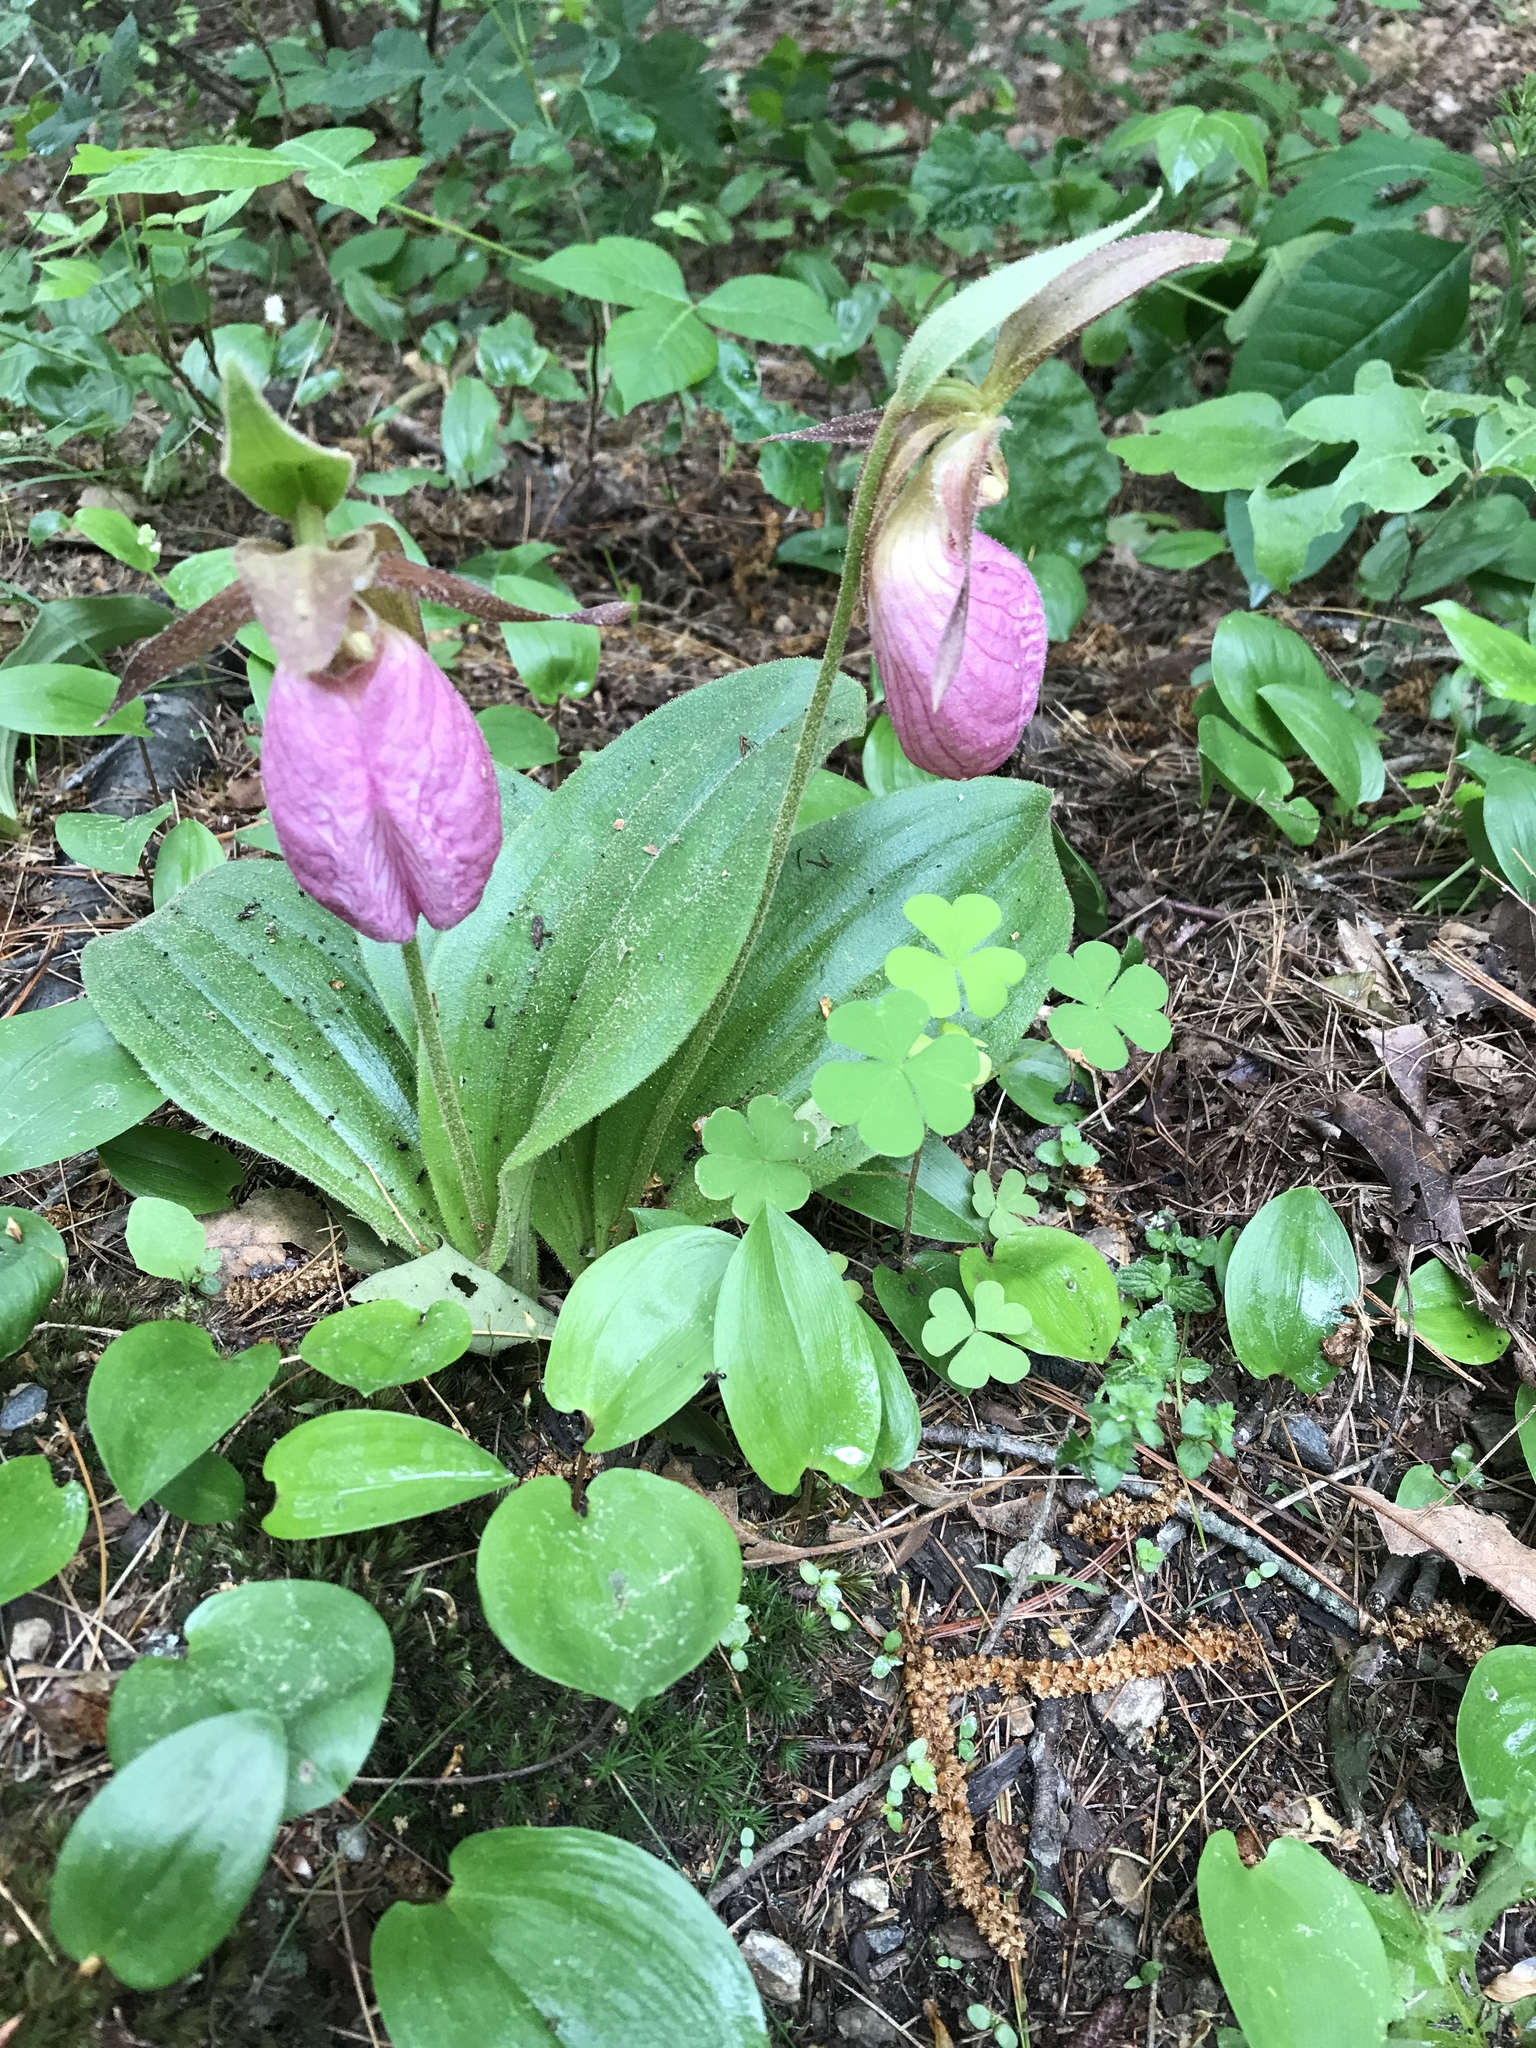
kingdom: Plantae
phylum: Tracheophyta
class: Liliopsida
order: Asparagales
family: Orchidaceae
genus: Cypripedium
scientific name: Cypripedium acaule
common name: Pink lady's-slipper
